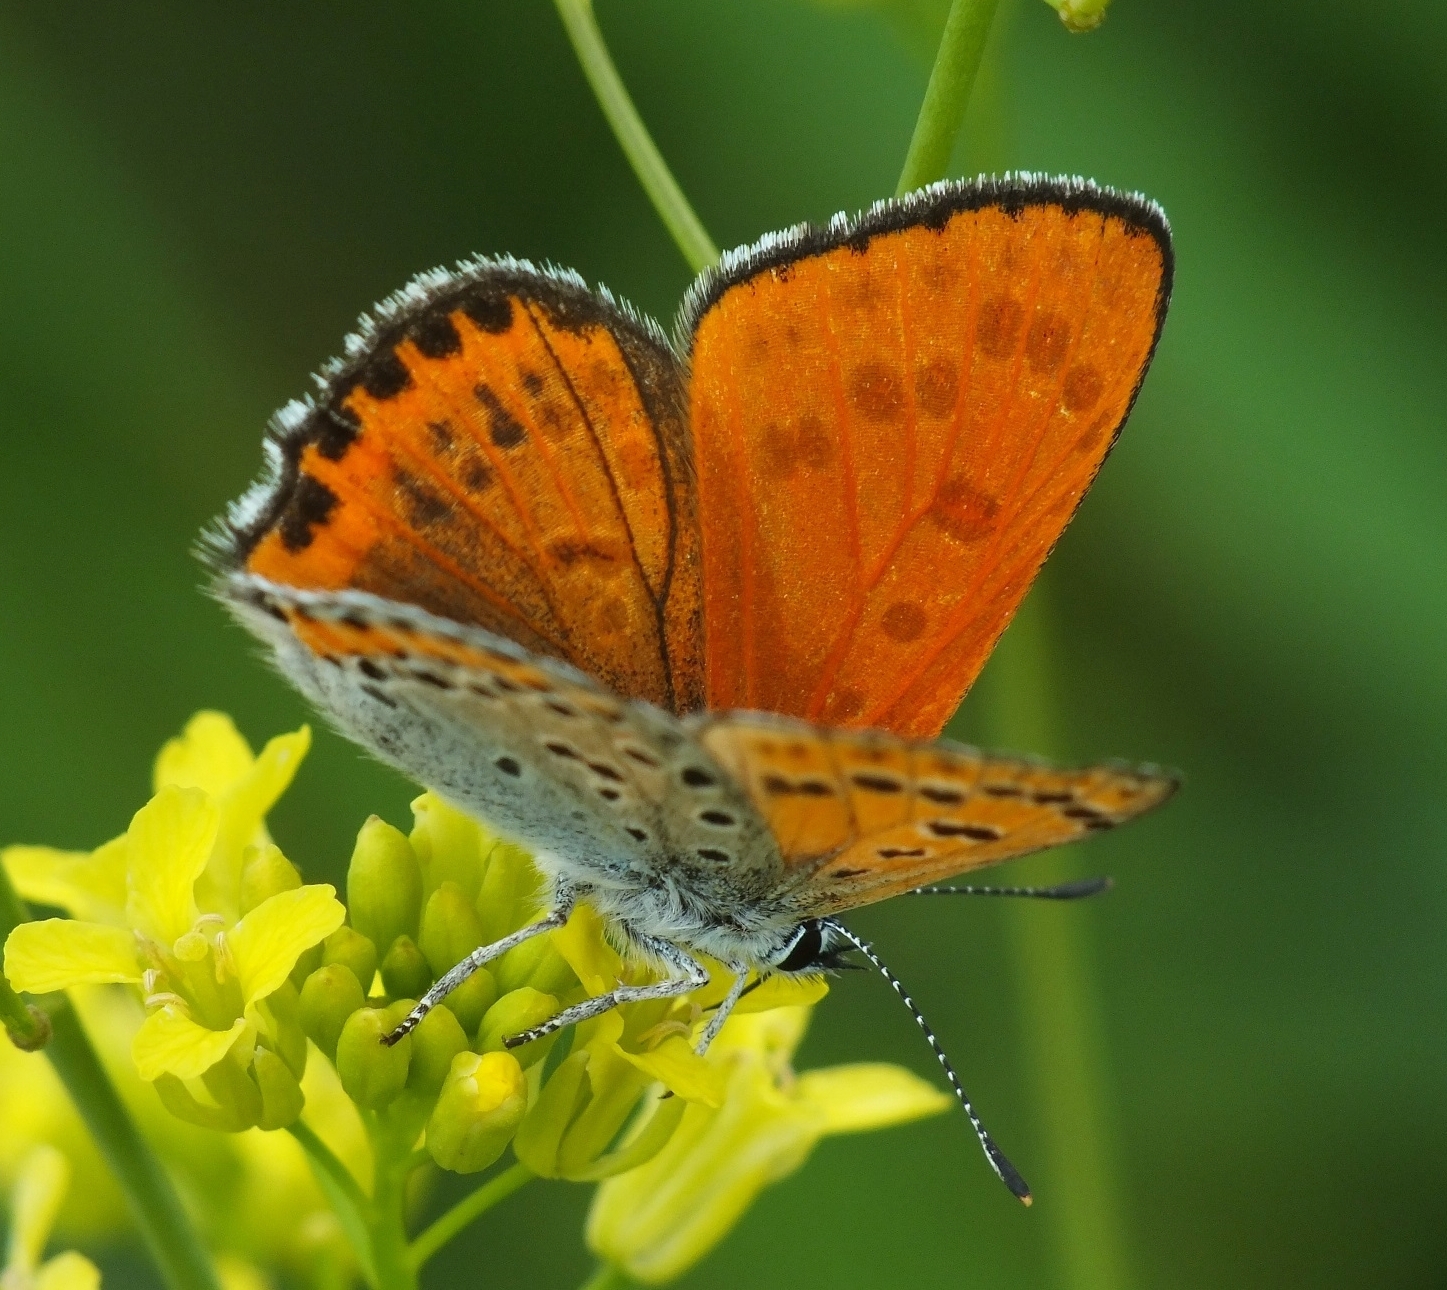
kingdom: Animalia
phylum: Arthropoda
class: Insecta
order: Lepidoptera
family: Lycaenidae
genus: Thersamonia
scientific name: Thersamonia thersamon
